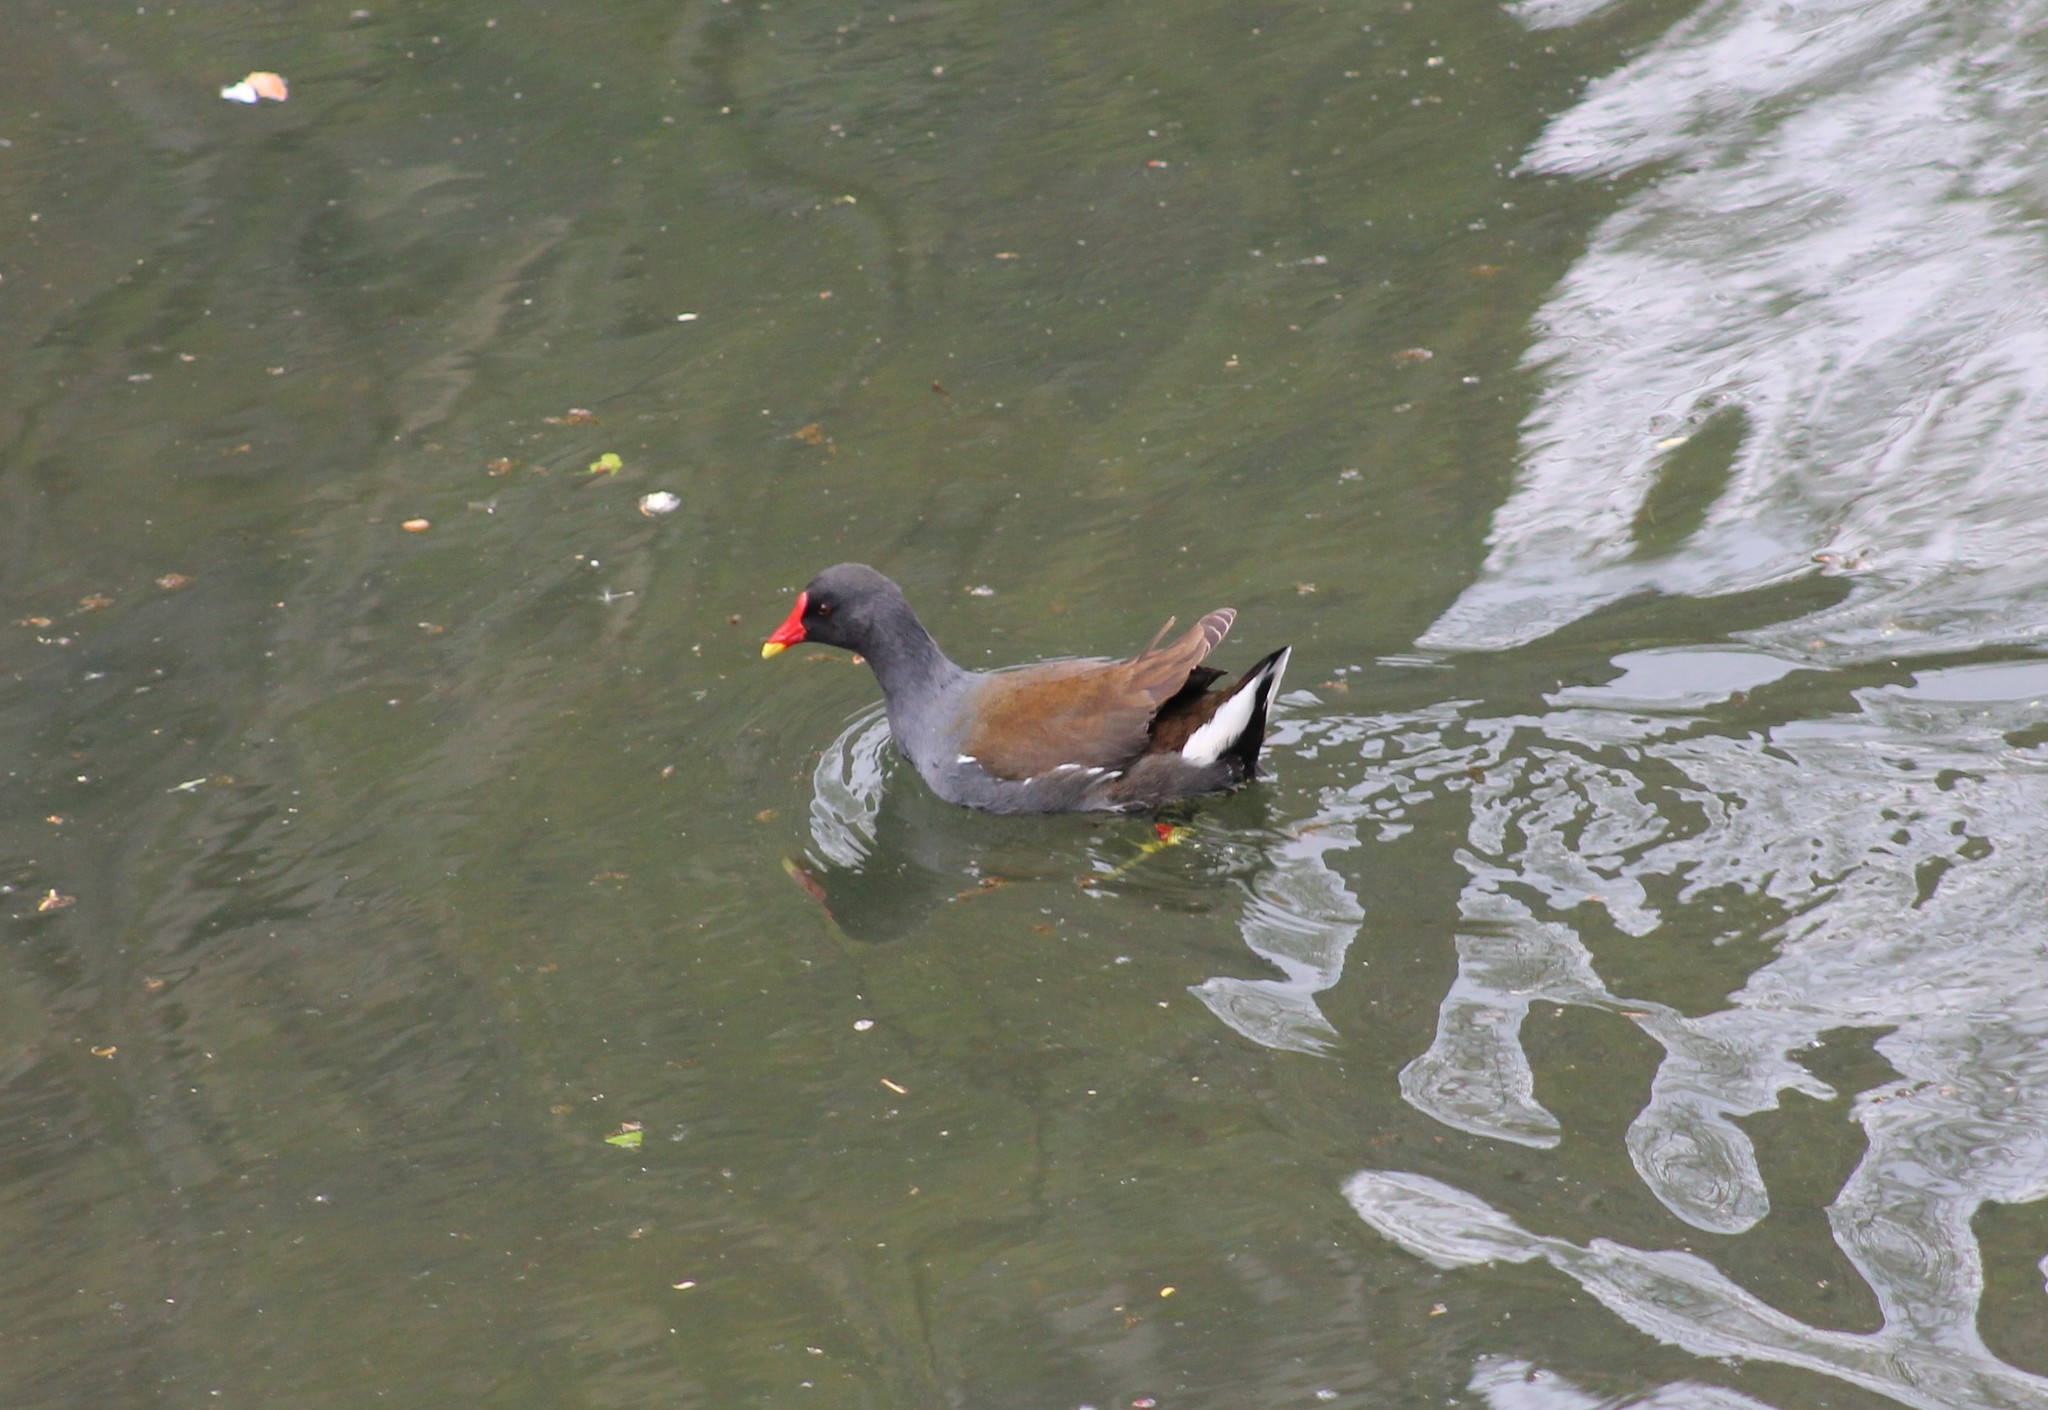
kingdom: Animalia
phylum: Chordata
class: Aves
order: Gruiformes
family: Rallidae
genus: Gallinula
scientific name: Gallinula chloropus
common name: Common moorhen
